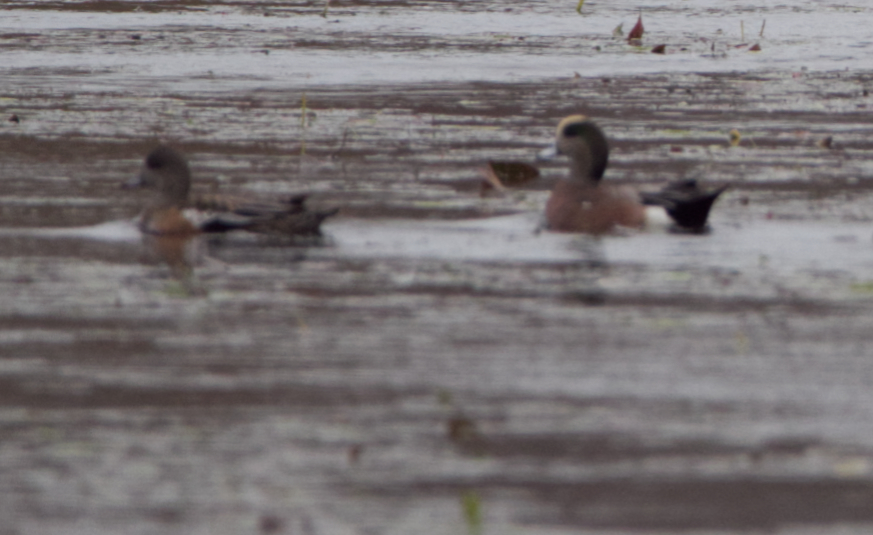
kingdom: Animalia
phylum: Chordata
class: Aves
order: Anseriformes
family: Anatidae
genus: Mareca
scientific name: Mareca americana
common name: American wigeon
